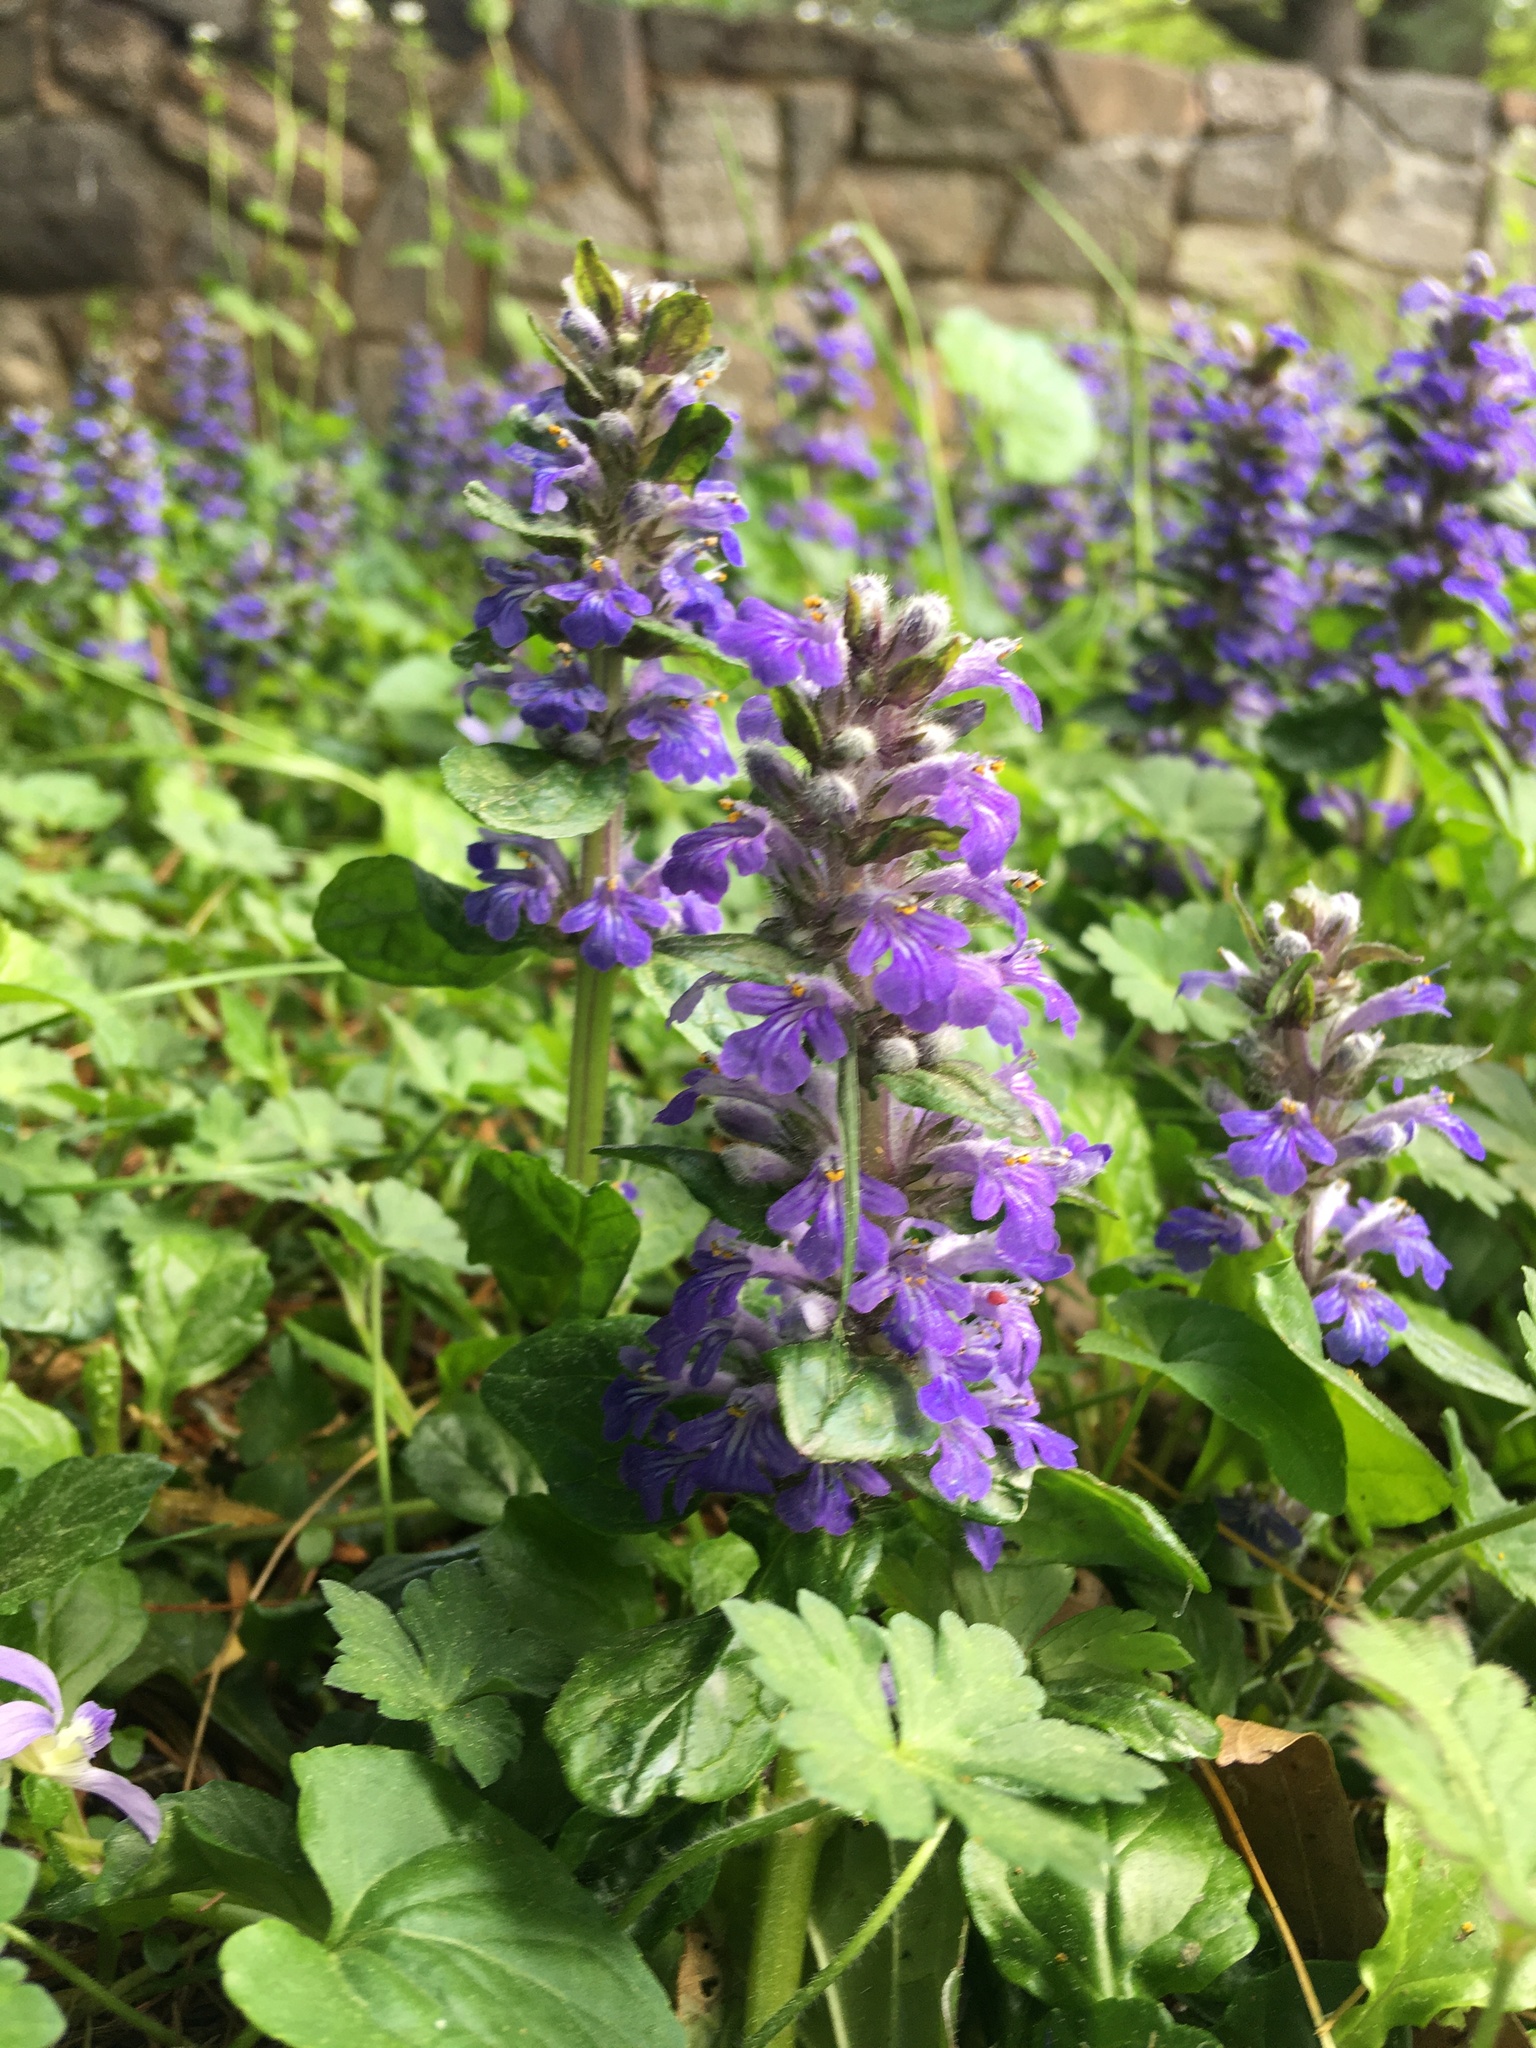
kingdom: Plantae
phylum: Tracheophyta
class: Magnoliopsida
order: Lamiales
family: Lamiaceae
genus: Ajuga
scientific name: Ajuga reptans
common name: Bugle
